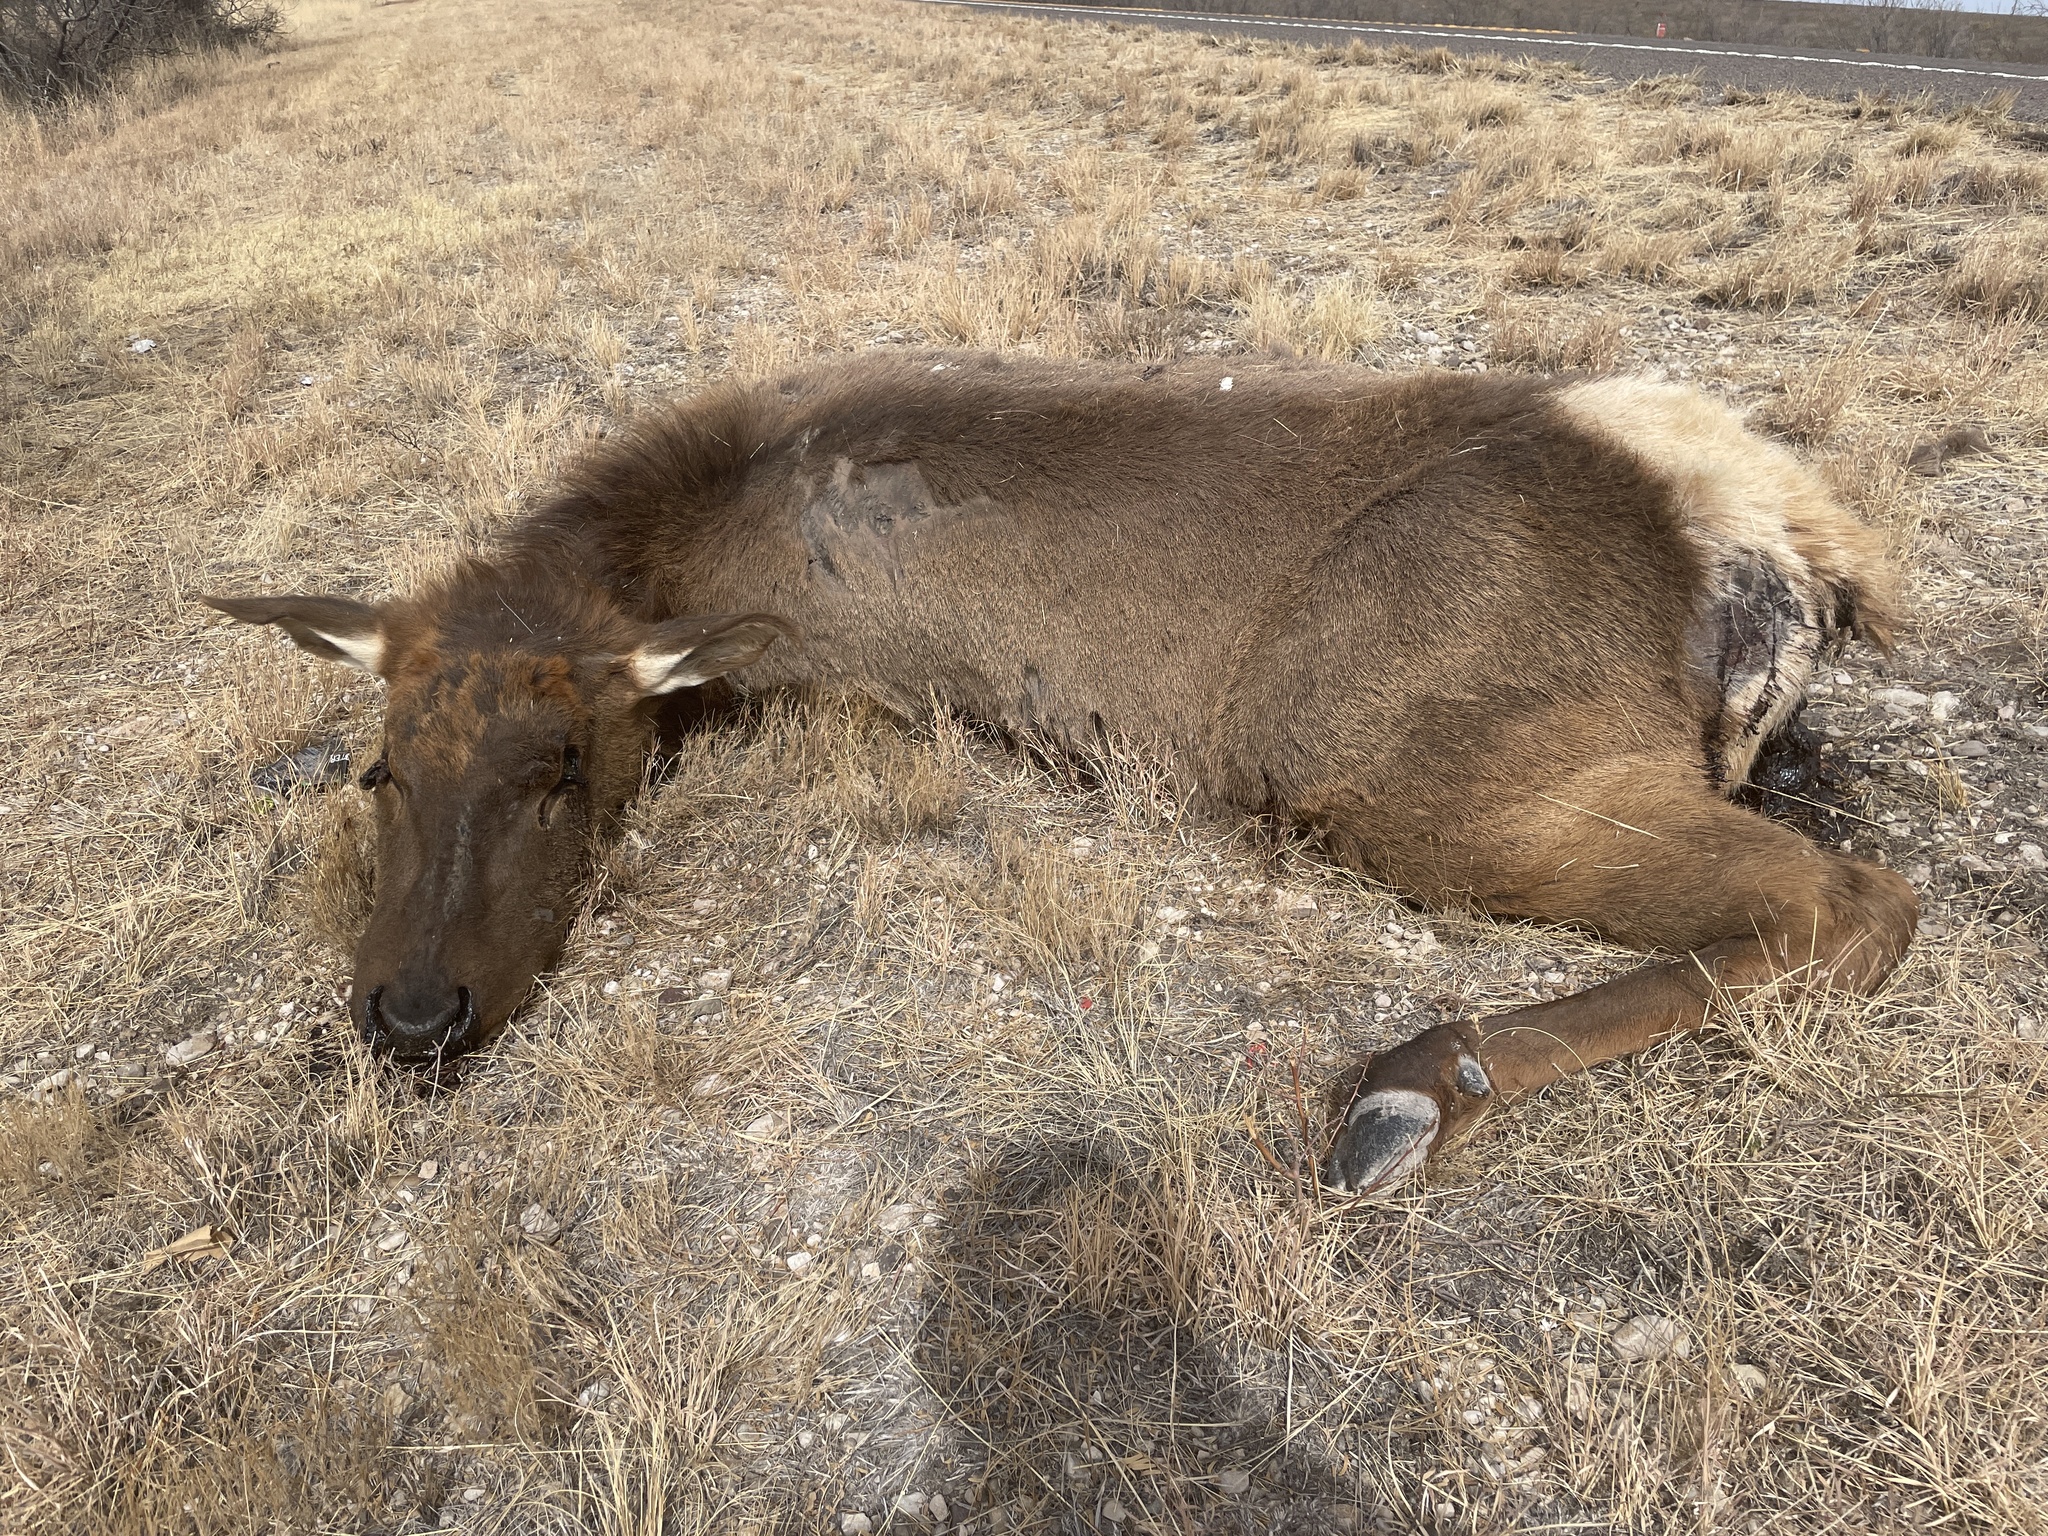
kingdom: Animalia
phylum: Chordata
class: Mammalia
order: Artiodactyla
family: Cervidae
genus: Cervus
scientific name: Cervus elaphus
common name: Red deer
